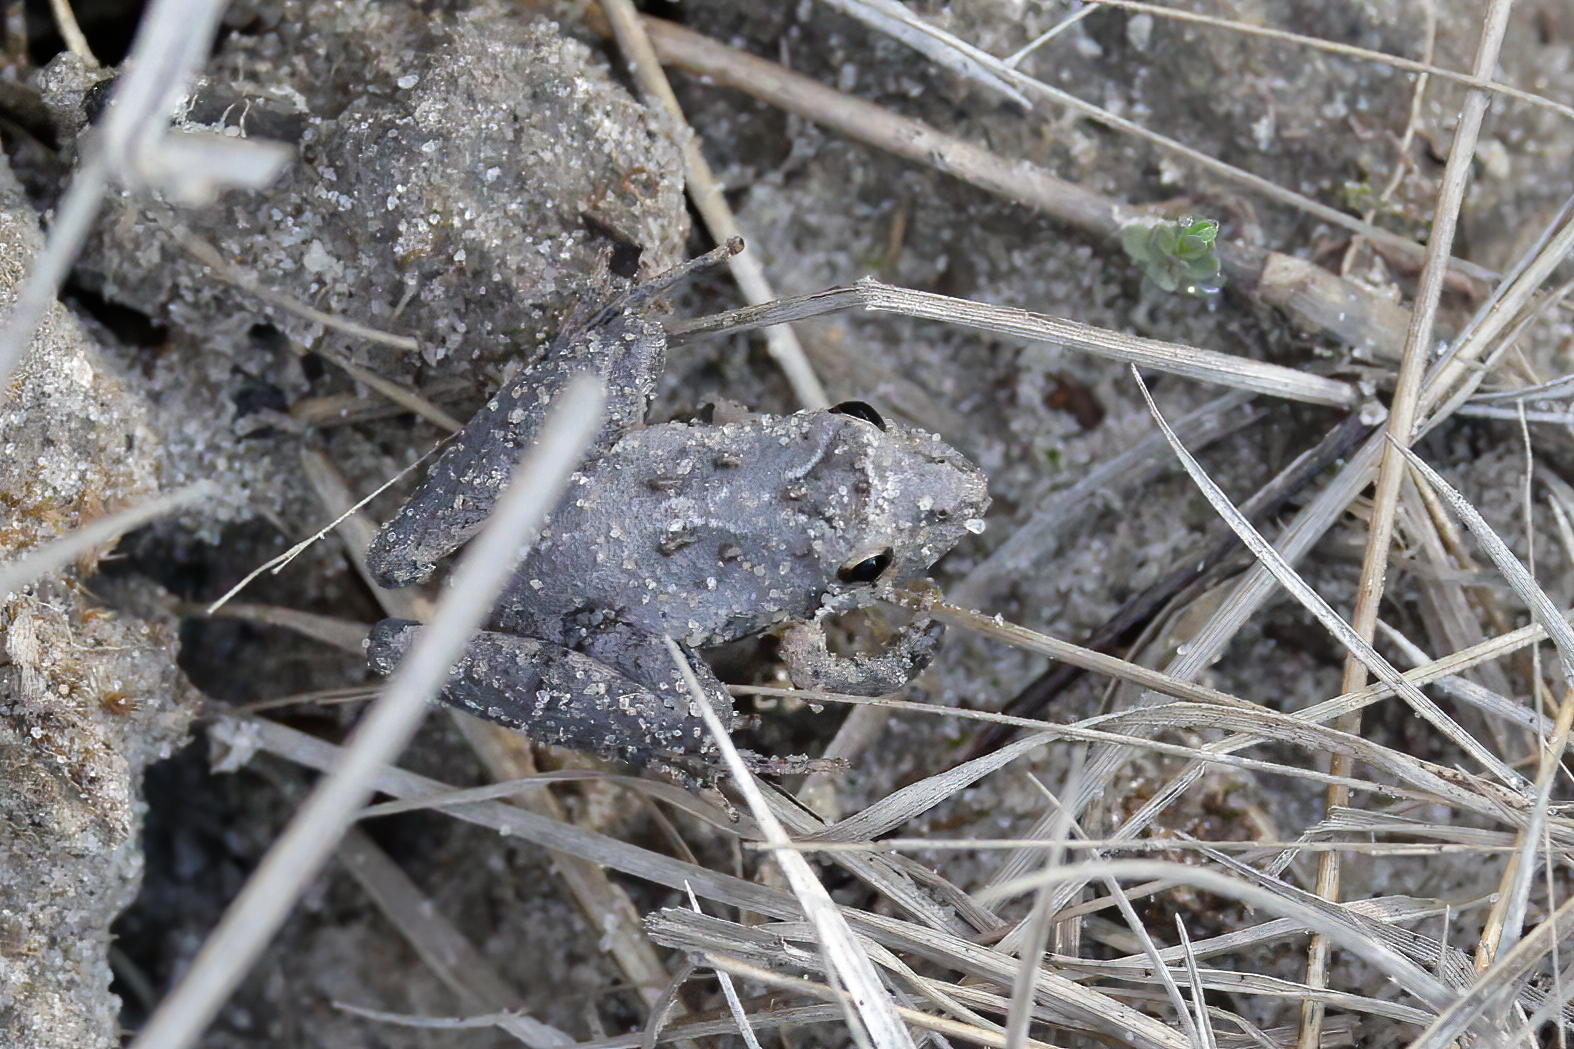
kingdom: Animalia
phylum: Chordata
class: Amphibia
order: Anura
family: Hylidae
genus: Acris
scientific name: Acris gryllus
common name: Southern cricket frog
